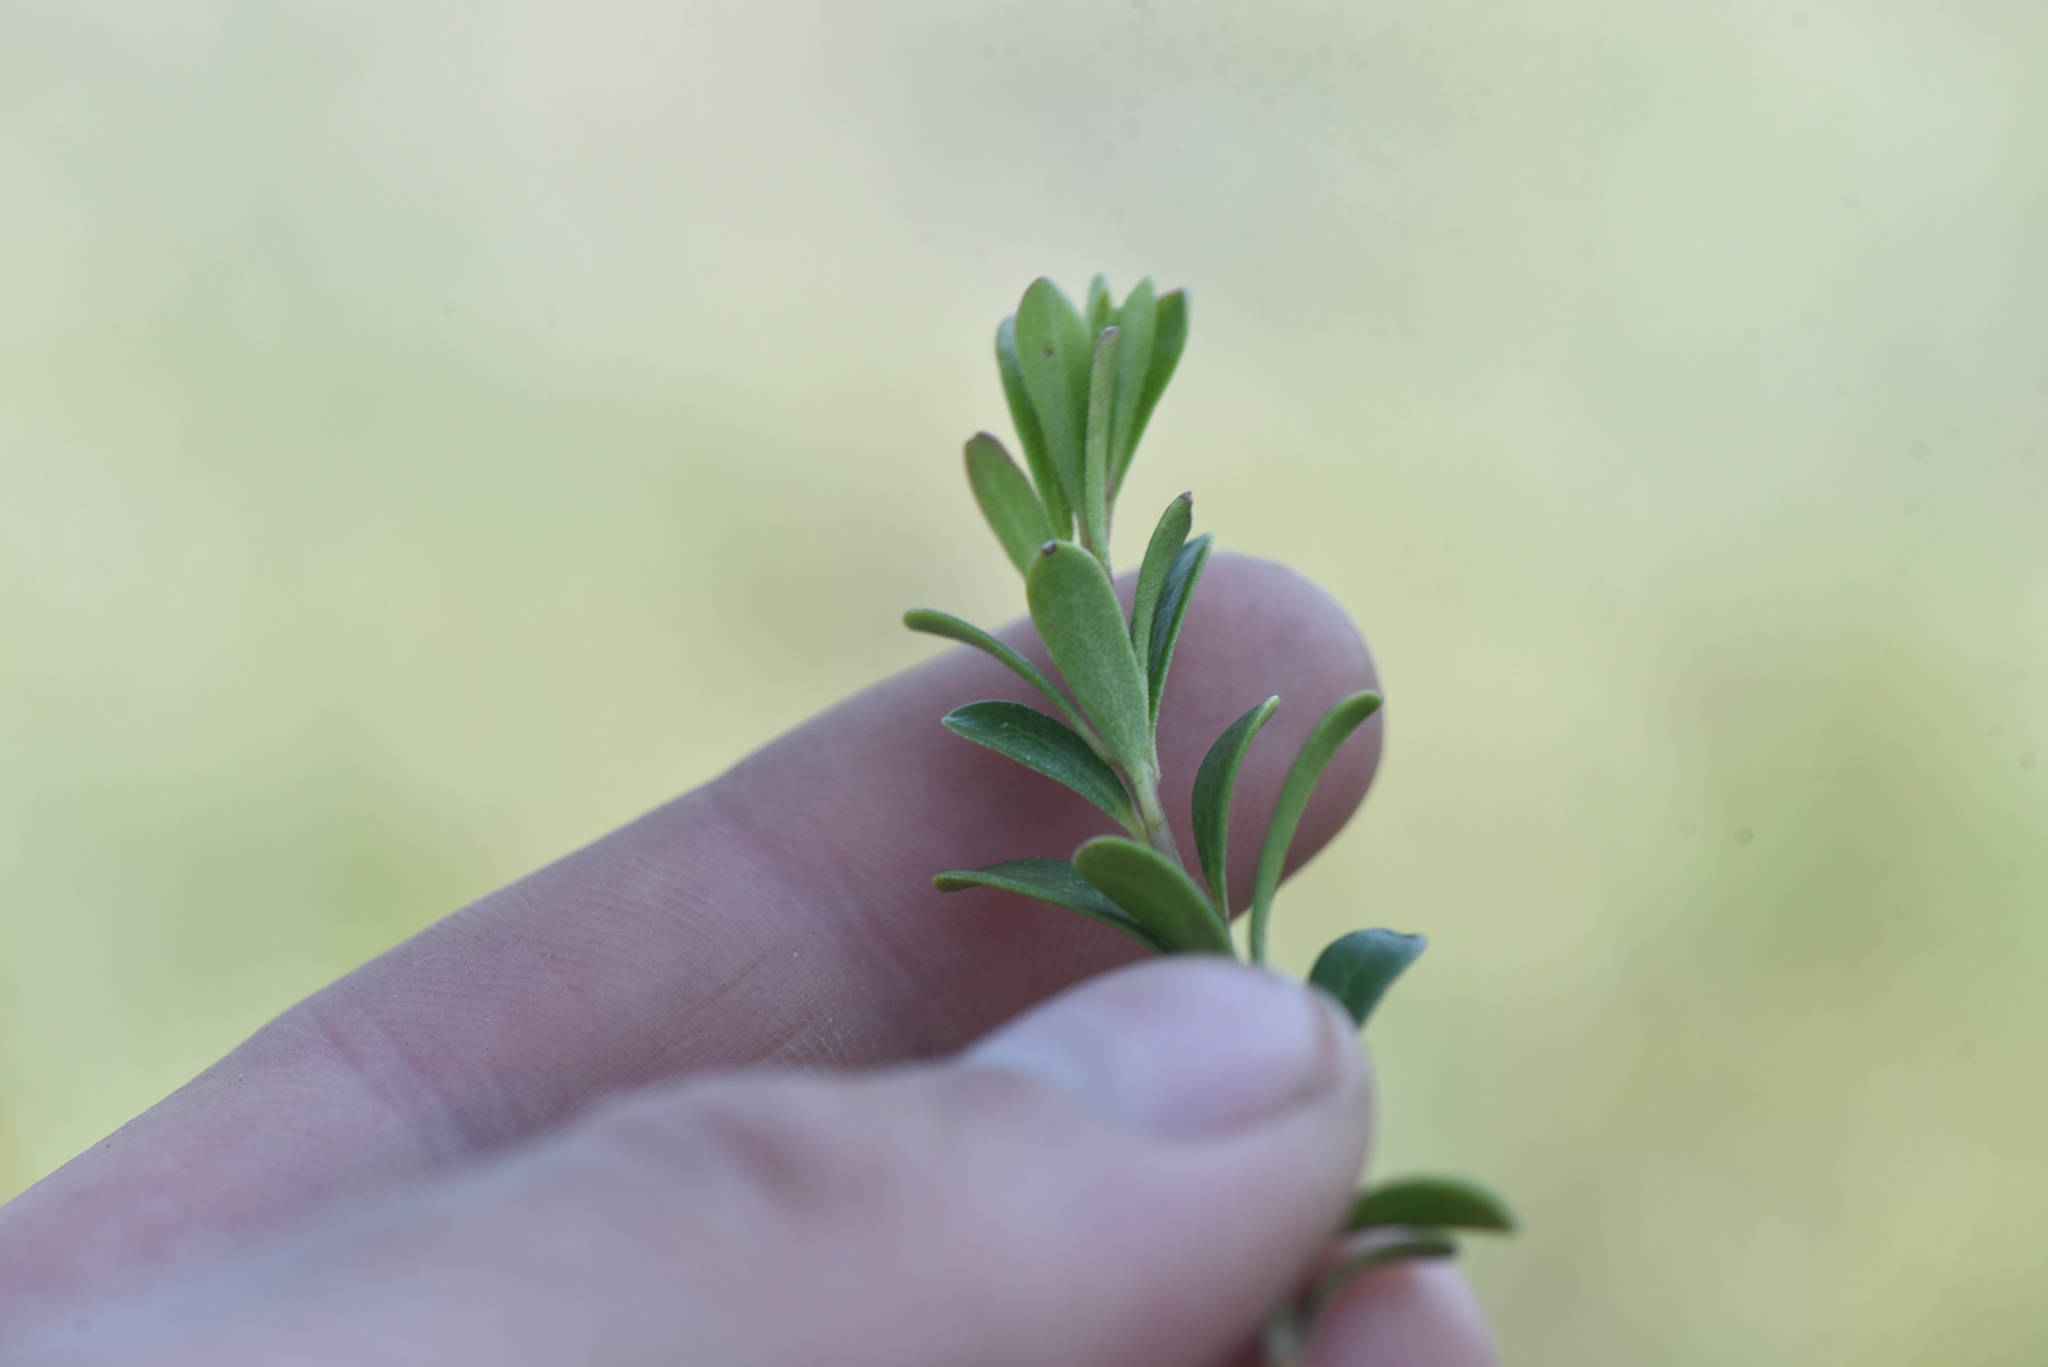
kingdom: Plantae
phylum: Tracheophyta
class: Magnoliopsida
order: Ericales
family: Ericaceae
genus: Arctostaphylos
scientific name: Arctostaphylos uva-ursi
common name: Bearberry
